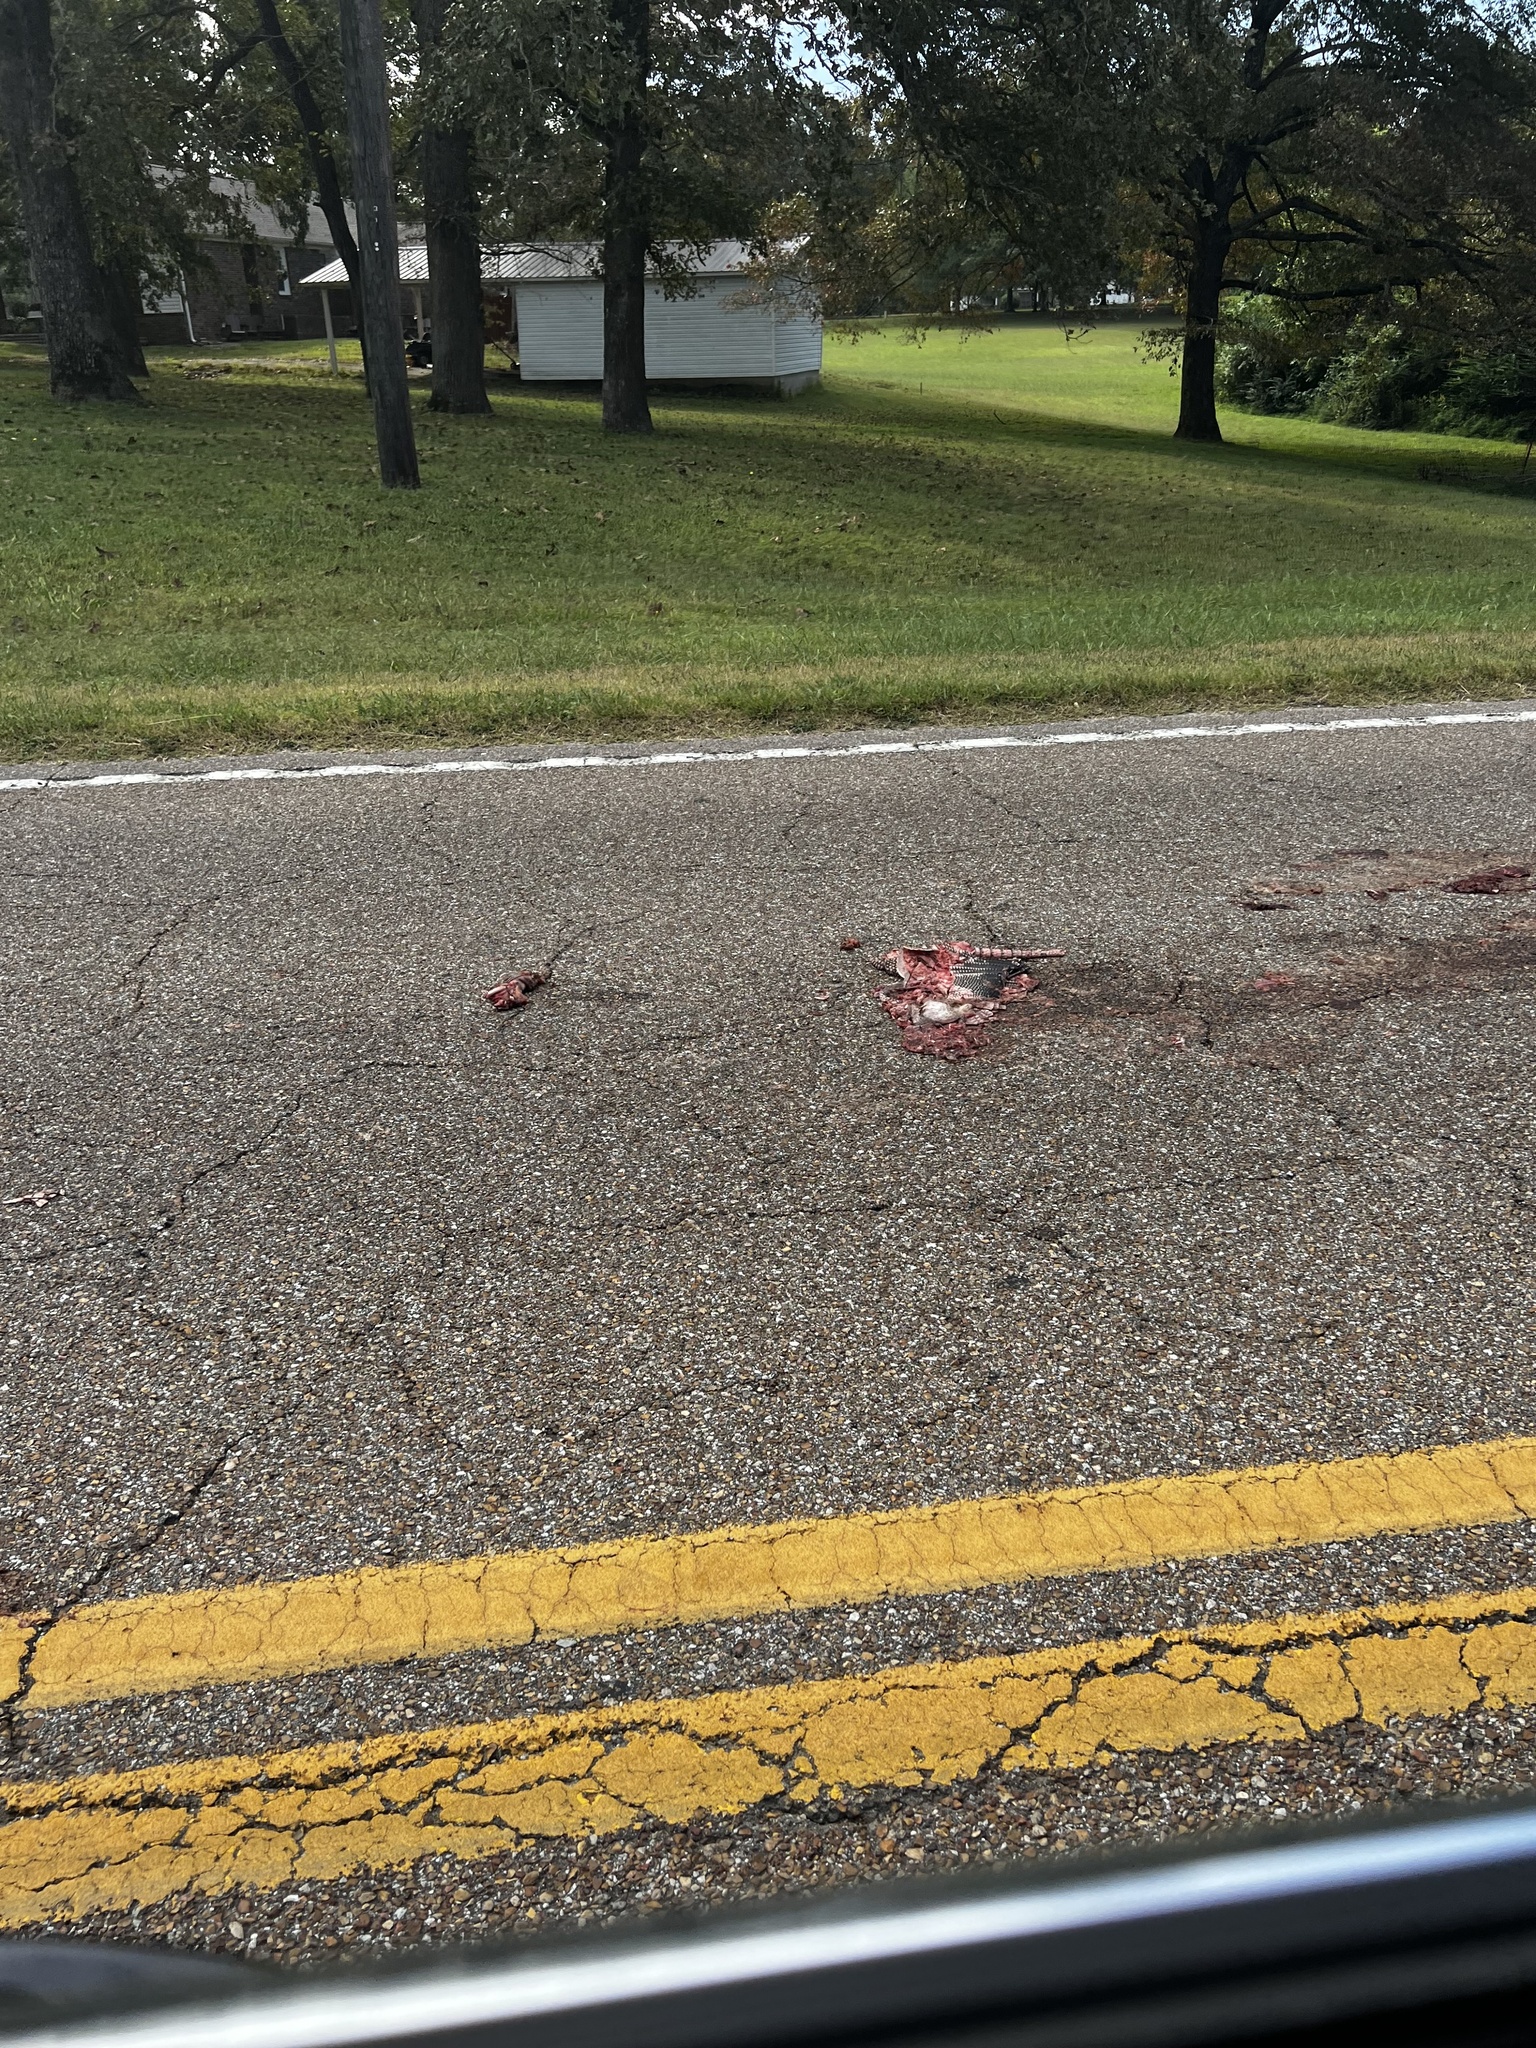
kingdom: Animalia
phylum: Chordata
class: Mammalia
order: Cingulata
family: Dasypodidae
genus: Dasypus
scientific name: Dasypus novemcinctus
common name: Nine-banded armadillo
